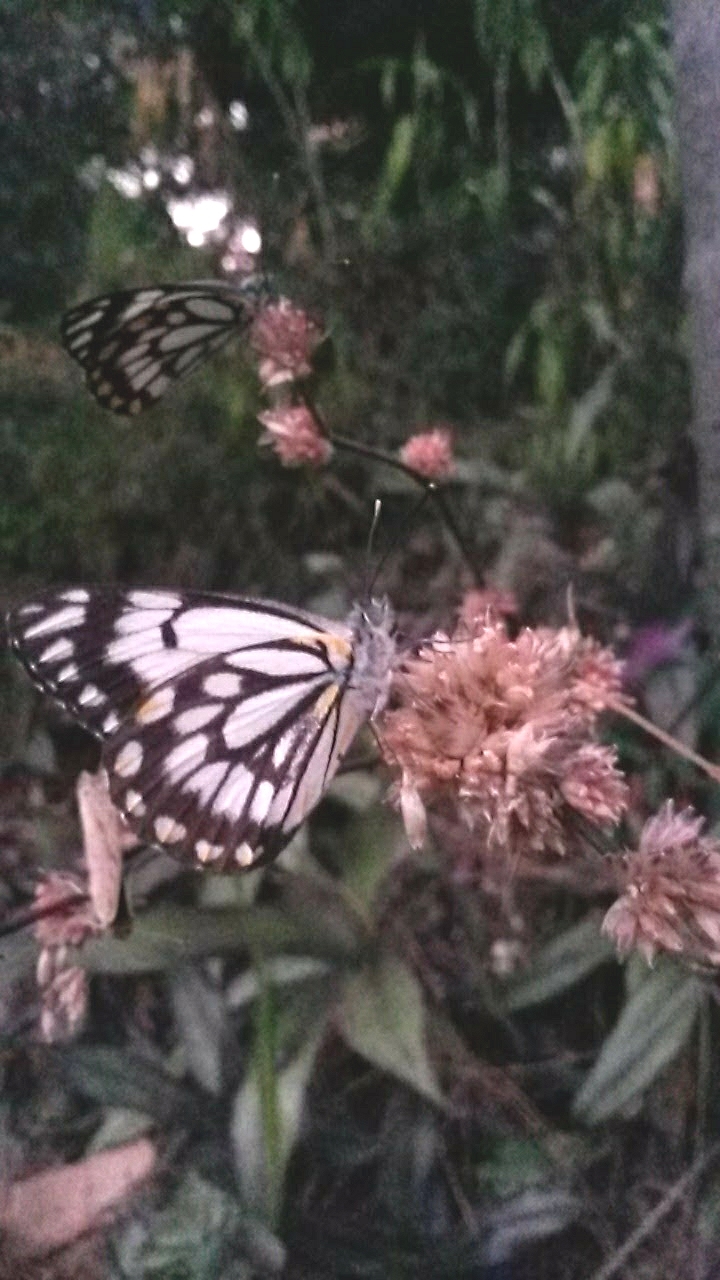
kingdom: Animalia
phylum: Arthropoda
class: Insecta
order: Lepidoptera
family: Pieridae
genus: Belenois
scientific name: Belenois java
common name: Caper white
